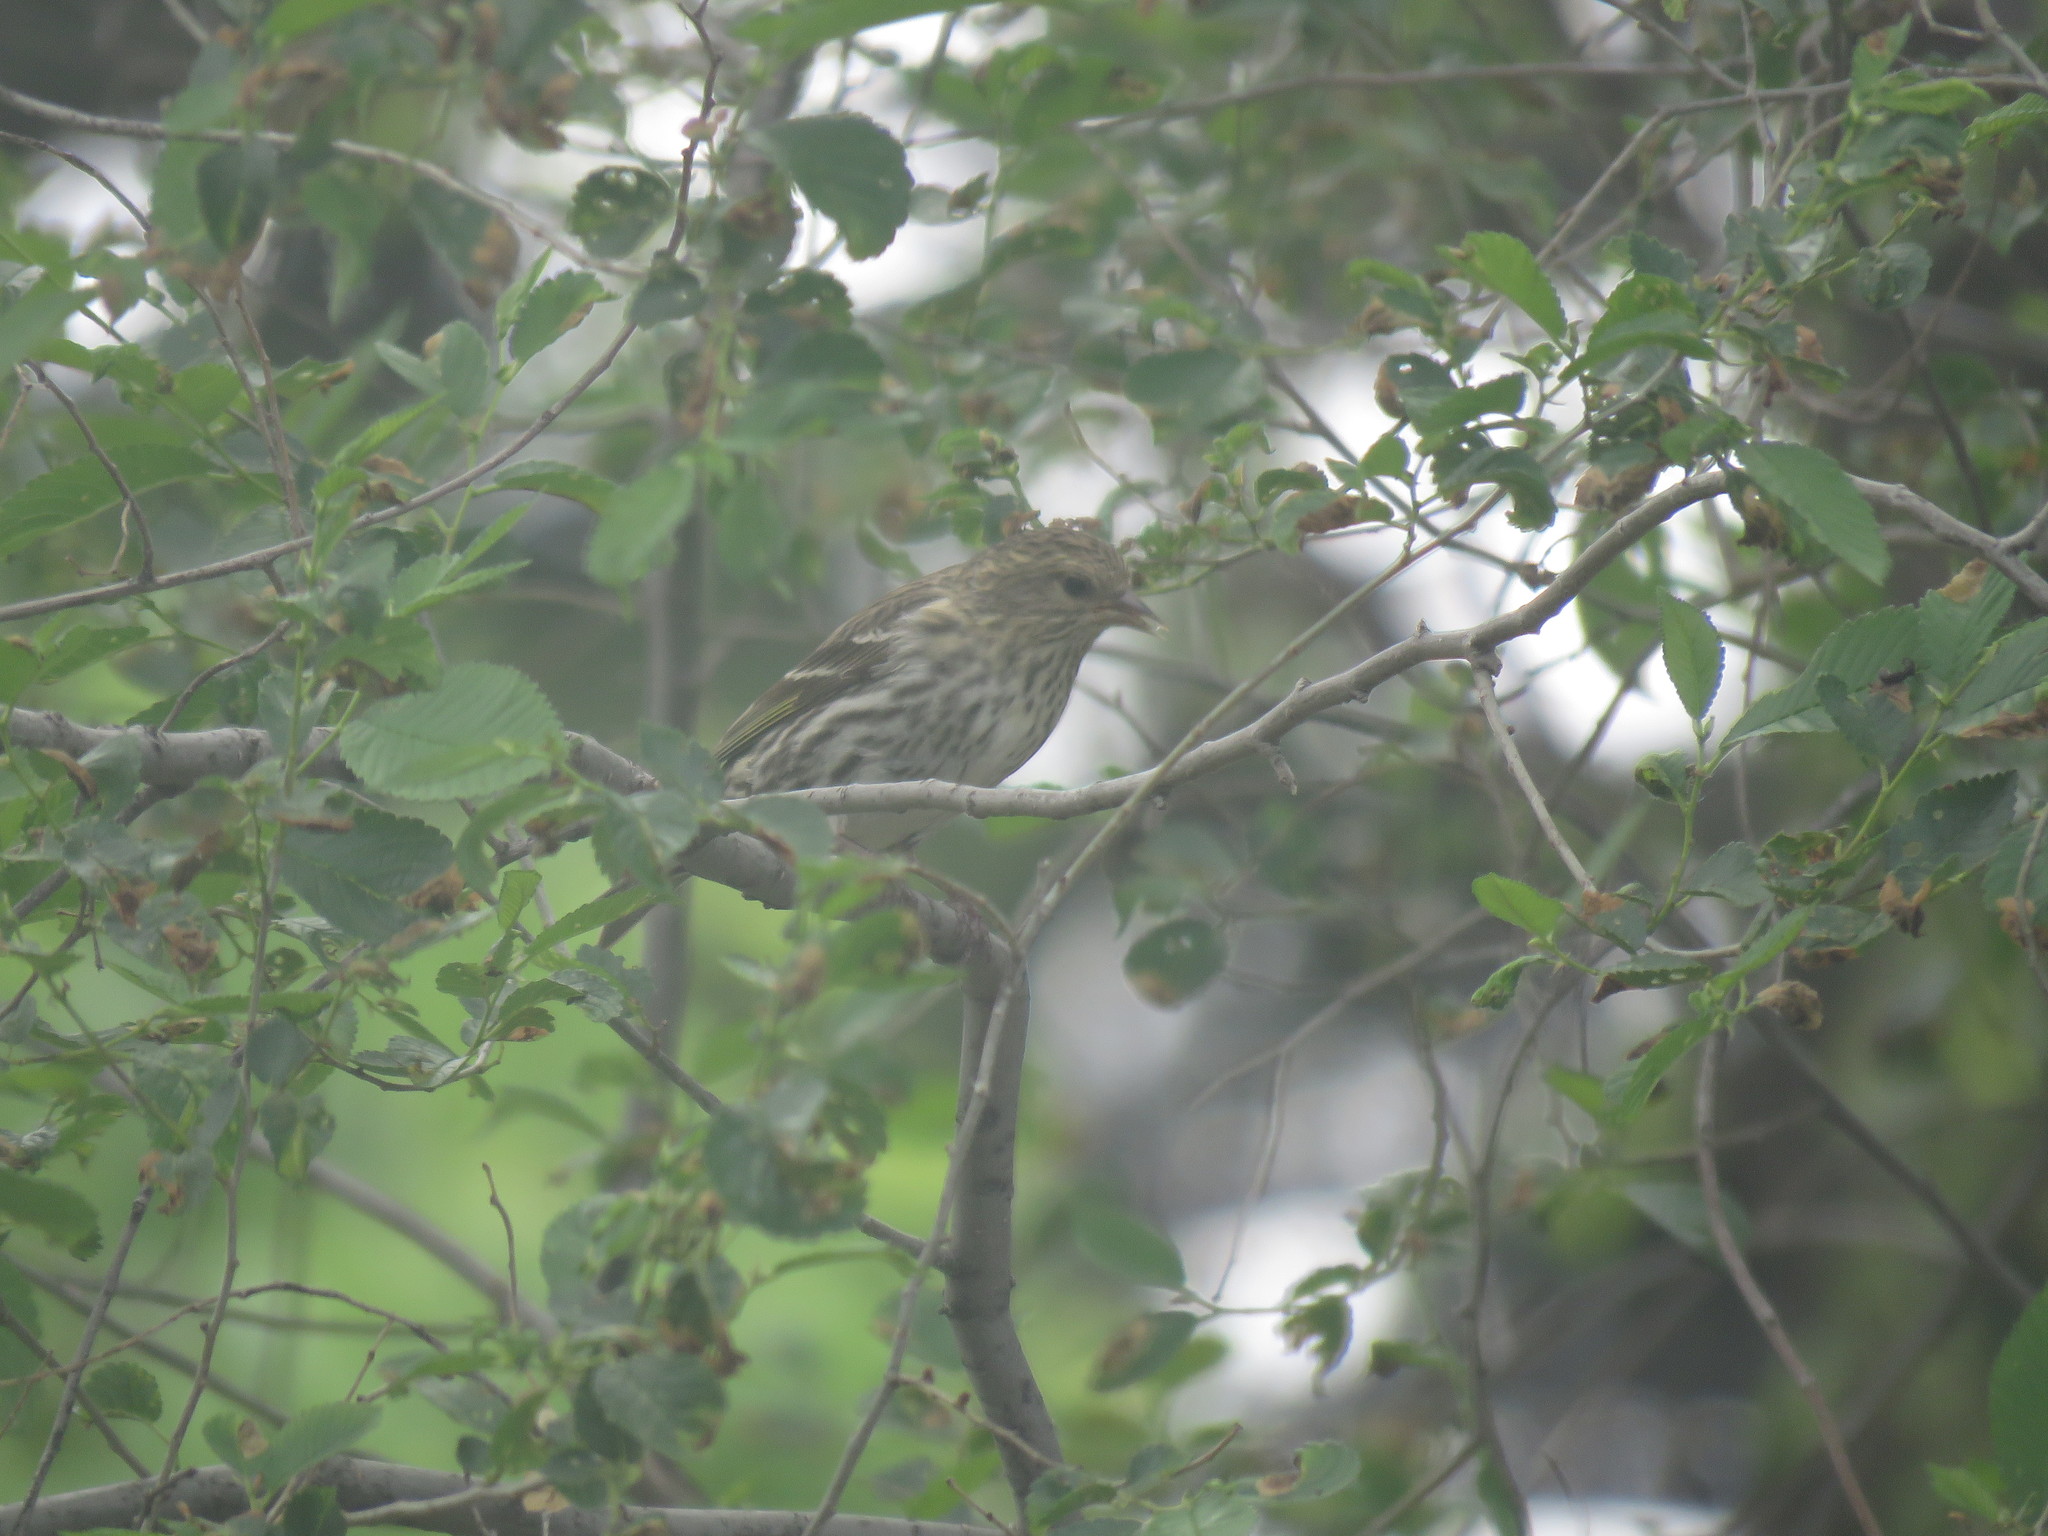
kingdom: Animalia
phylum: Chordata
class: Aves
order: Passeriformes
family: Fringillidae
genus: Spinus
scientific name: Spinus pinus
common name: Pine siskin
